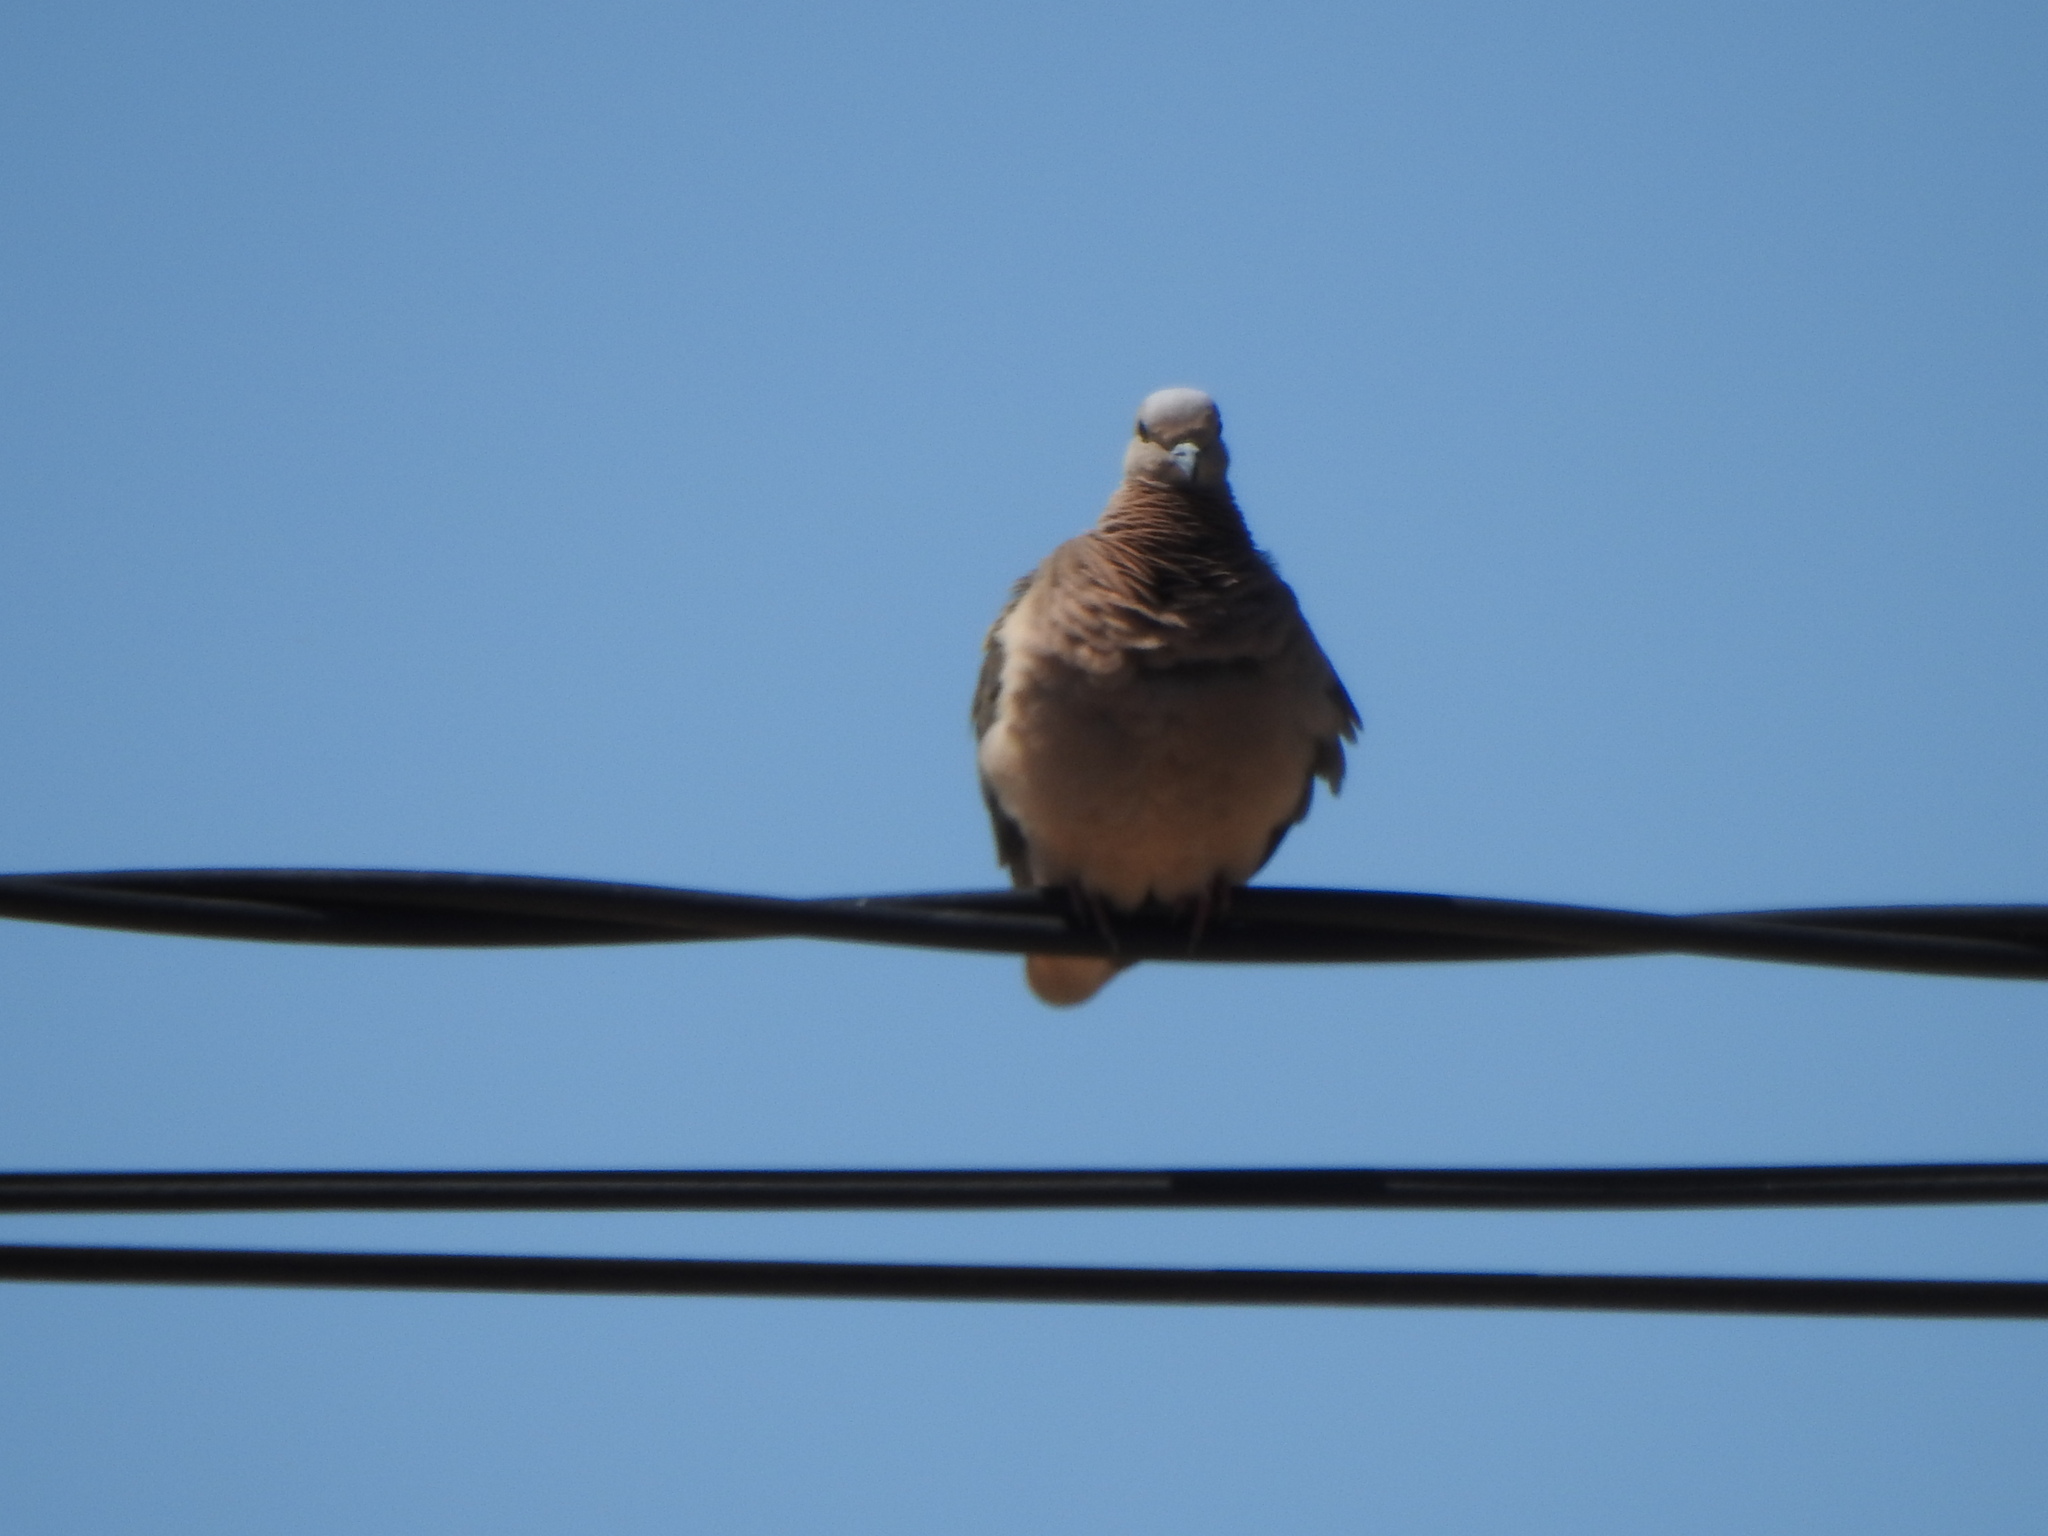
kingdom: Animalia
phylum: Chordata
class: Aves
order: Columbiformes
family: Columbidae
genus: Zenaida
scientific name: Zenaida auriculata
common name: Eared dove
